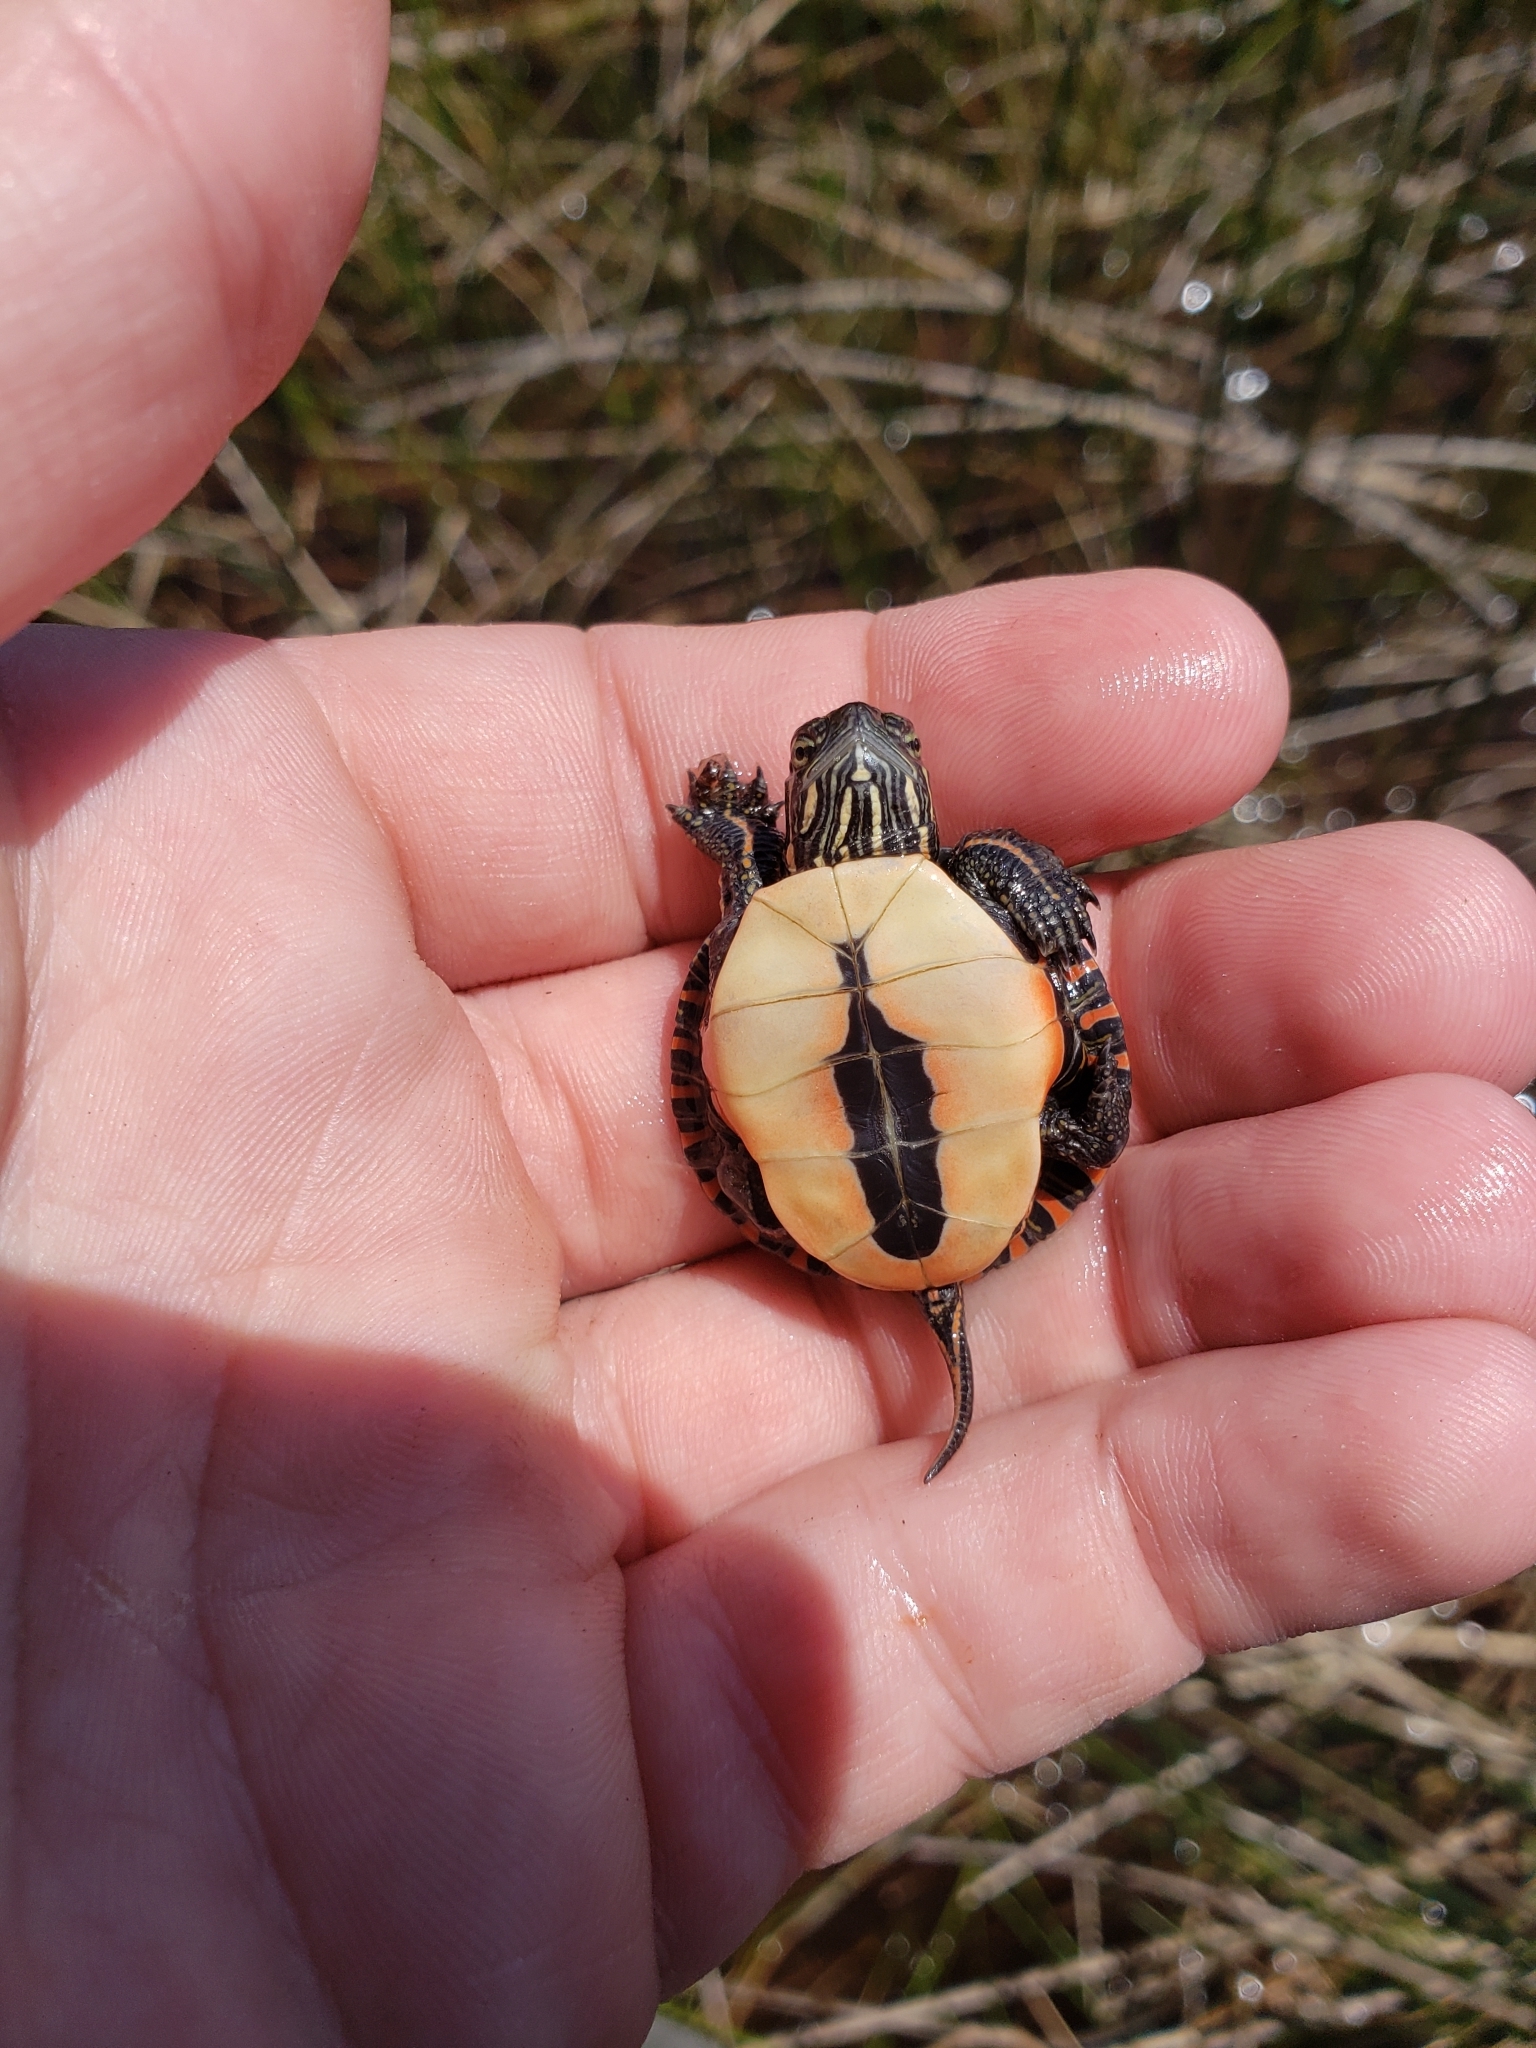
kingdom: Animalia
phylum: Chordata
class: Testudines
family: Emydidae
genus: Chrysemys
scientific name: Chrysemys picta
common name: Painted turtle
